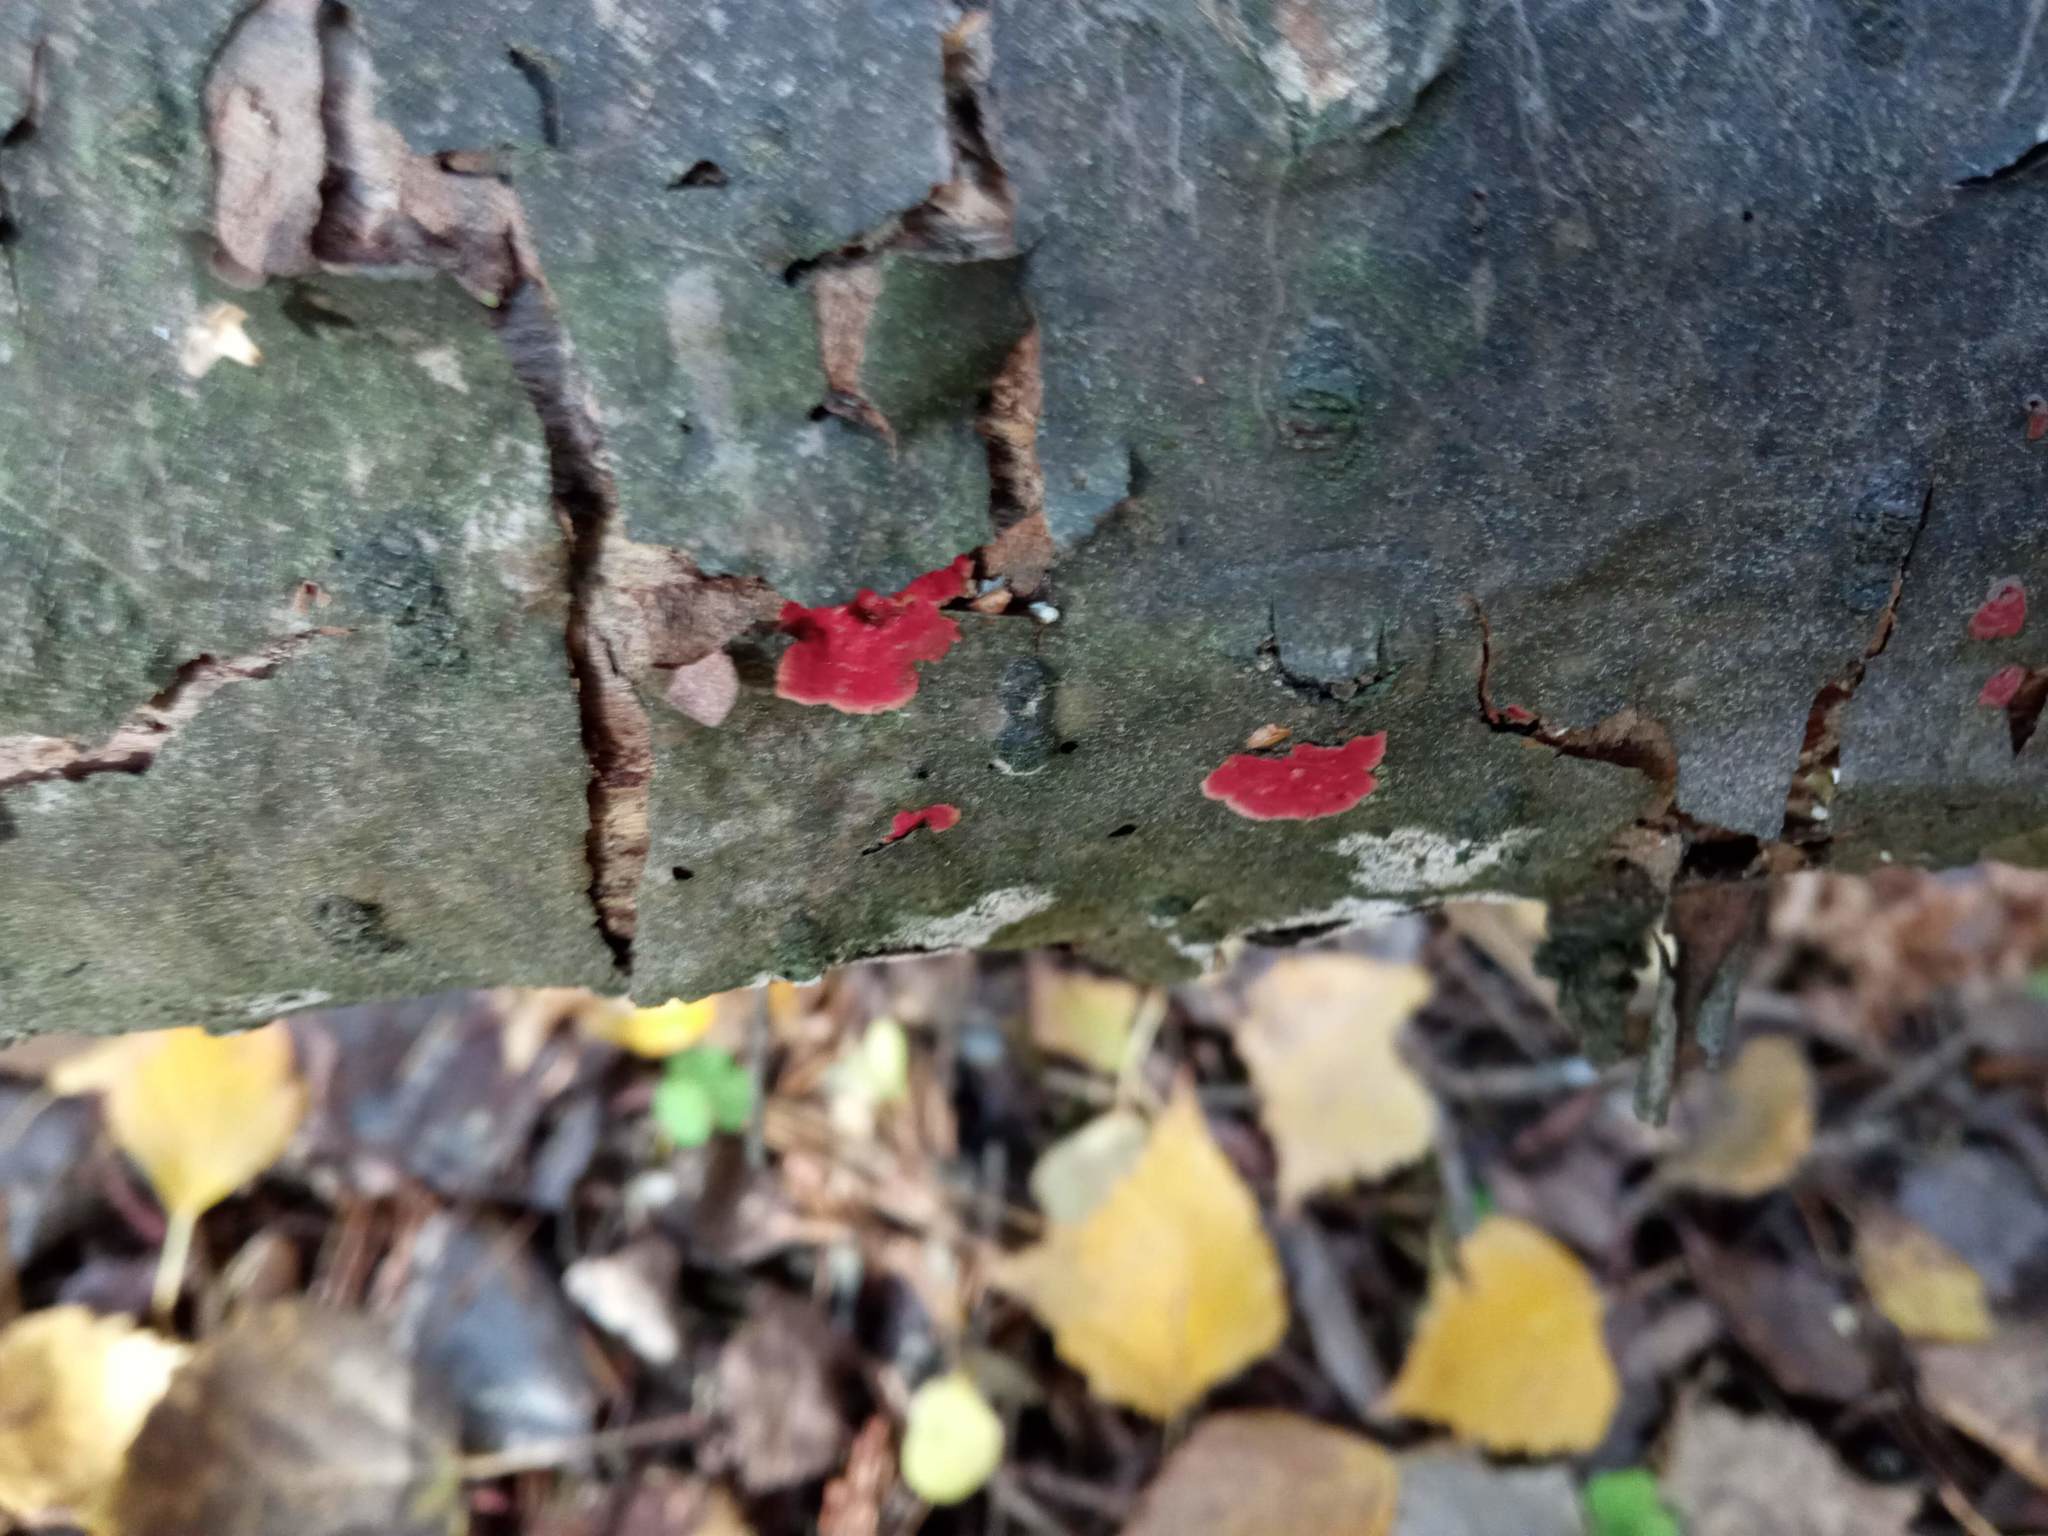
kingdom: Fungi
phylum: Basidiomycota
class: Agaricomycetes
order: Hymenochaetales
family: Hymenochaetaceae
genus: Hymenochaete
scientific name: Hymenochaete cruenta
